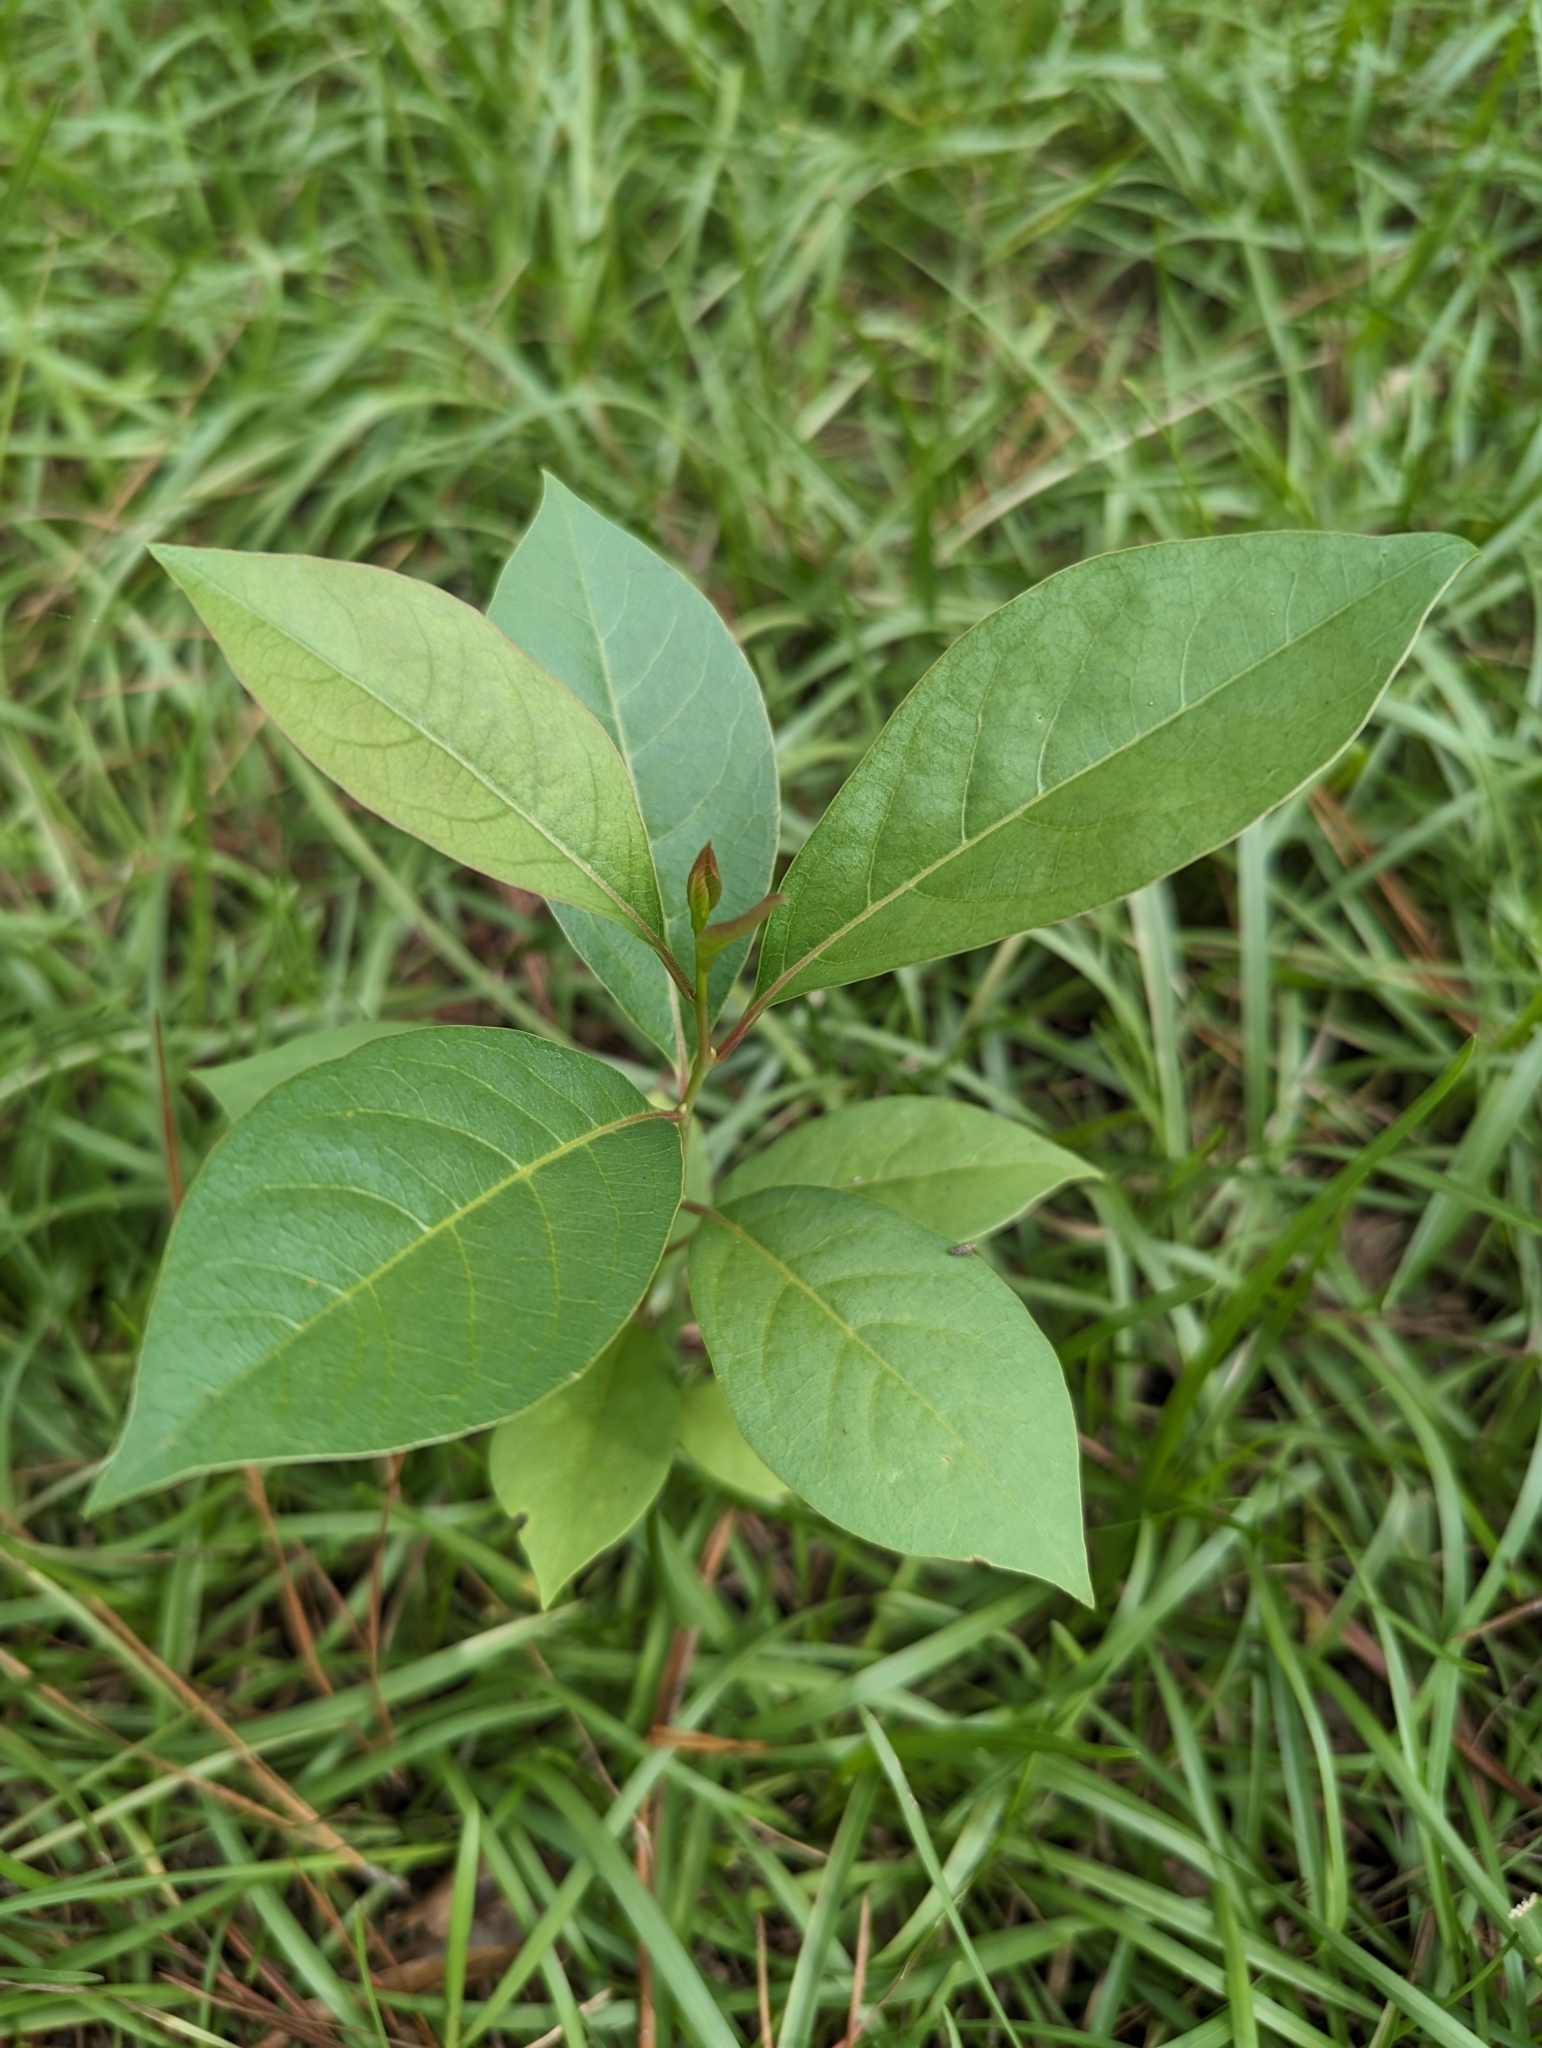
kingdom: Plantae
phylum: Tracheophyta
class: Magnoliopsida
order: Ericales
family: Ebenaceae
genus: Diospyros
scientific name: Diospyros virginiana
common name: Persimmon
